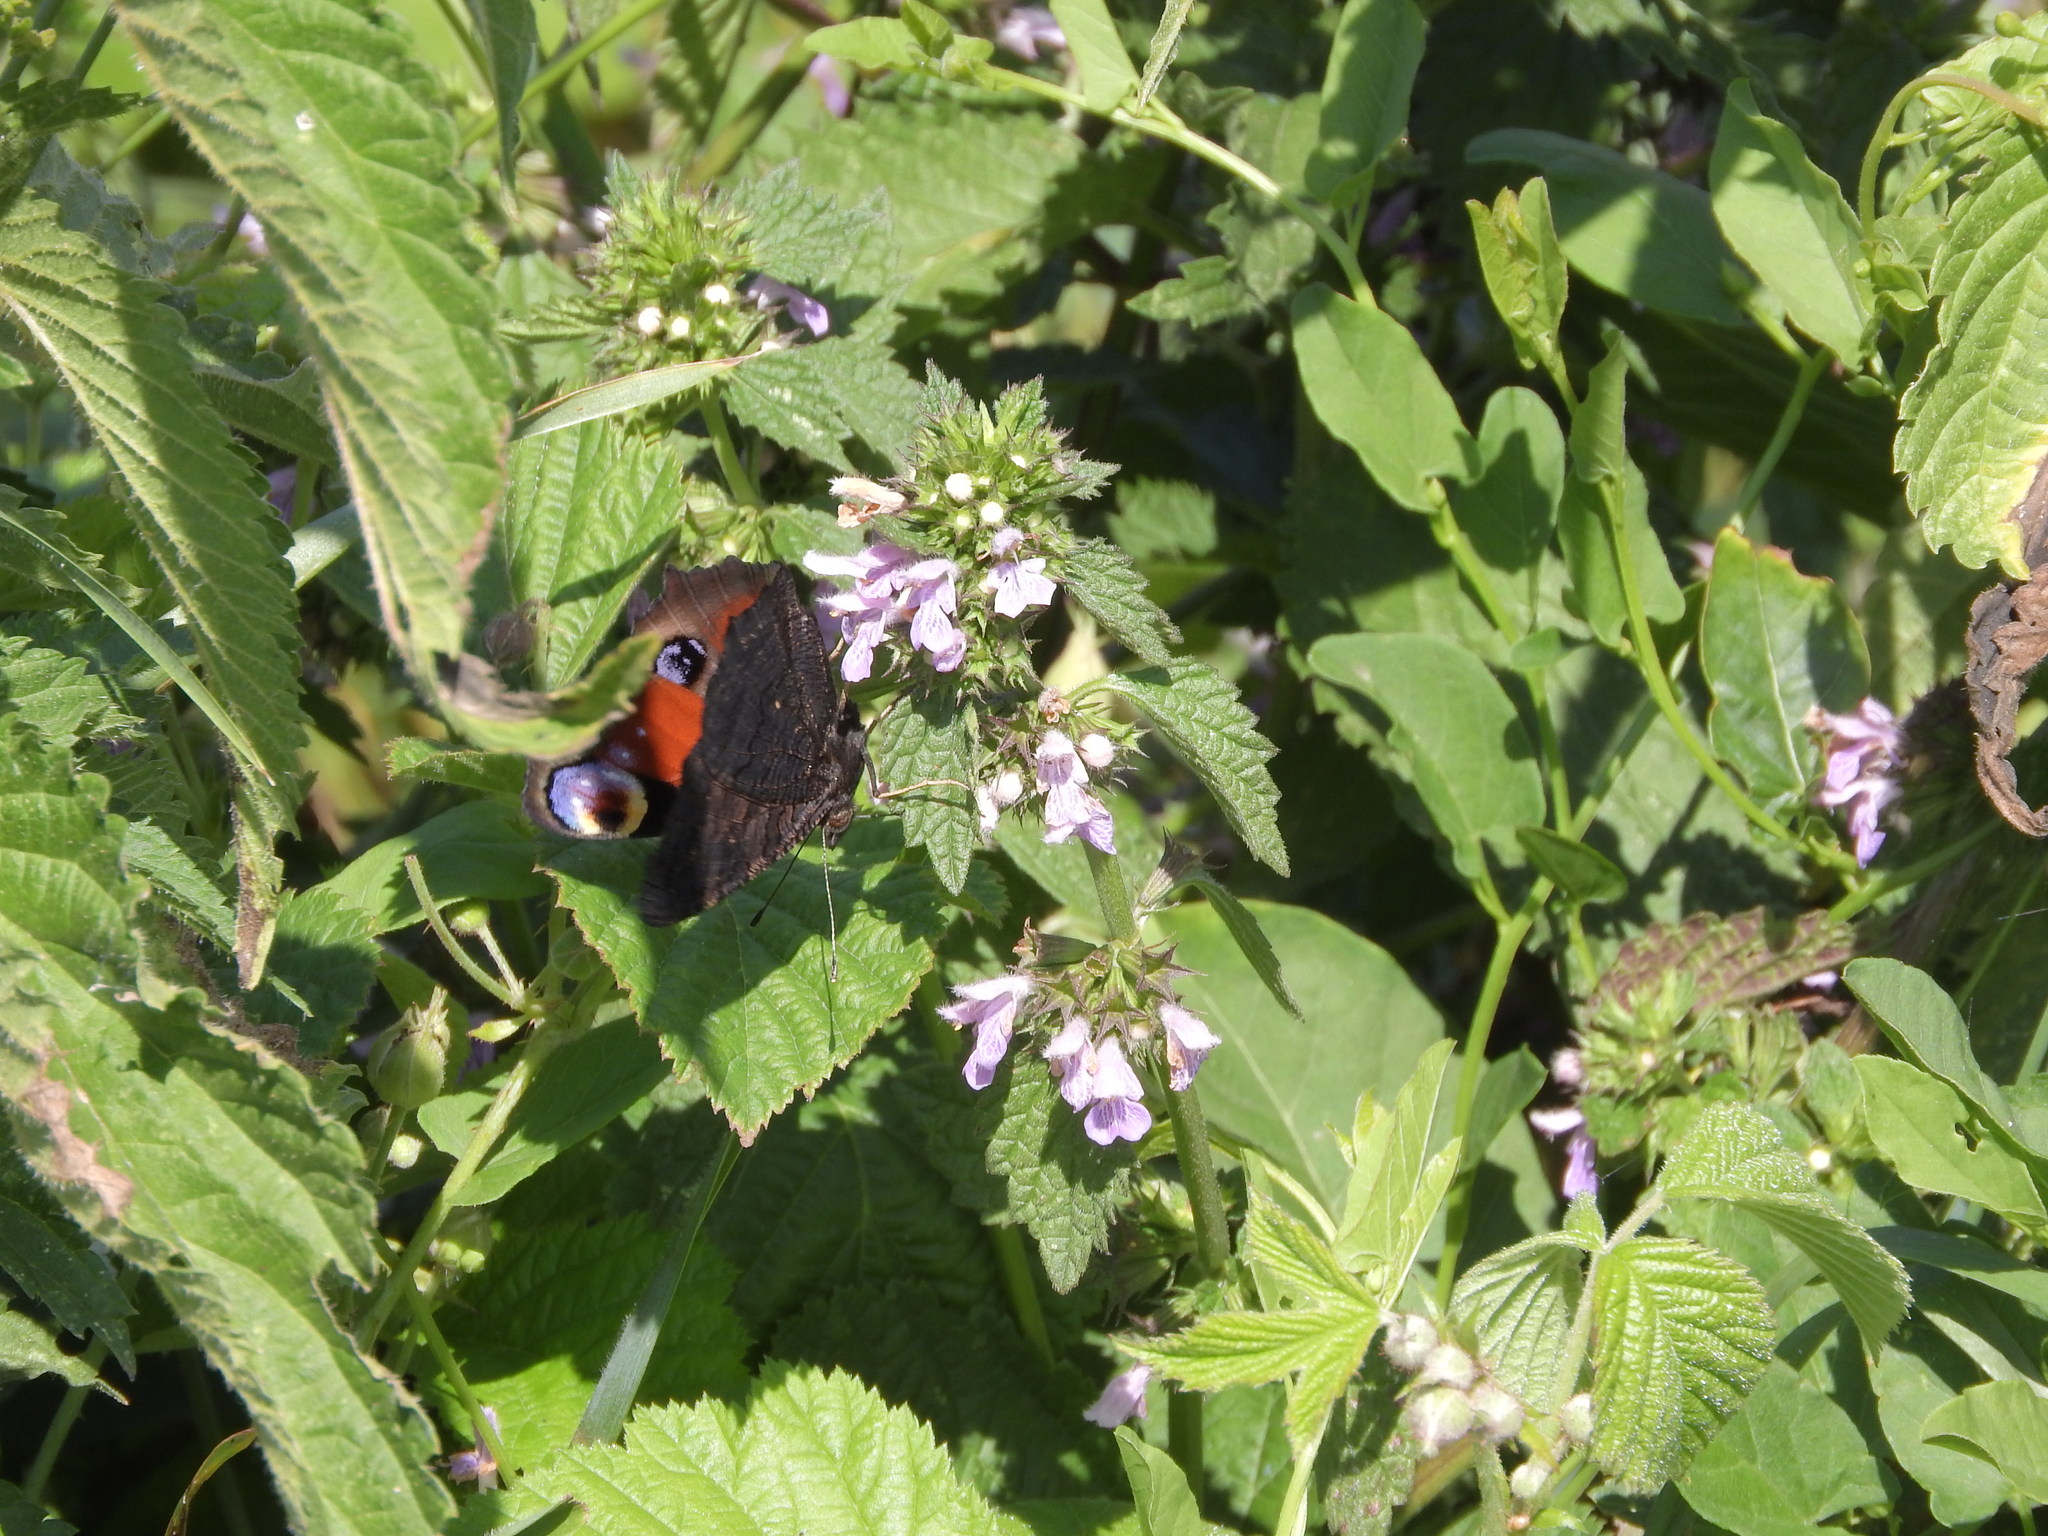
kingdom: Animalia
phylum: Arthropoda
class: Insecta
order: Lepidoptera
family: Nymphalidae
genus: Aglais
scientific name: Aglais io
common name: Peacock
